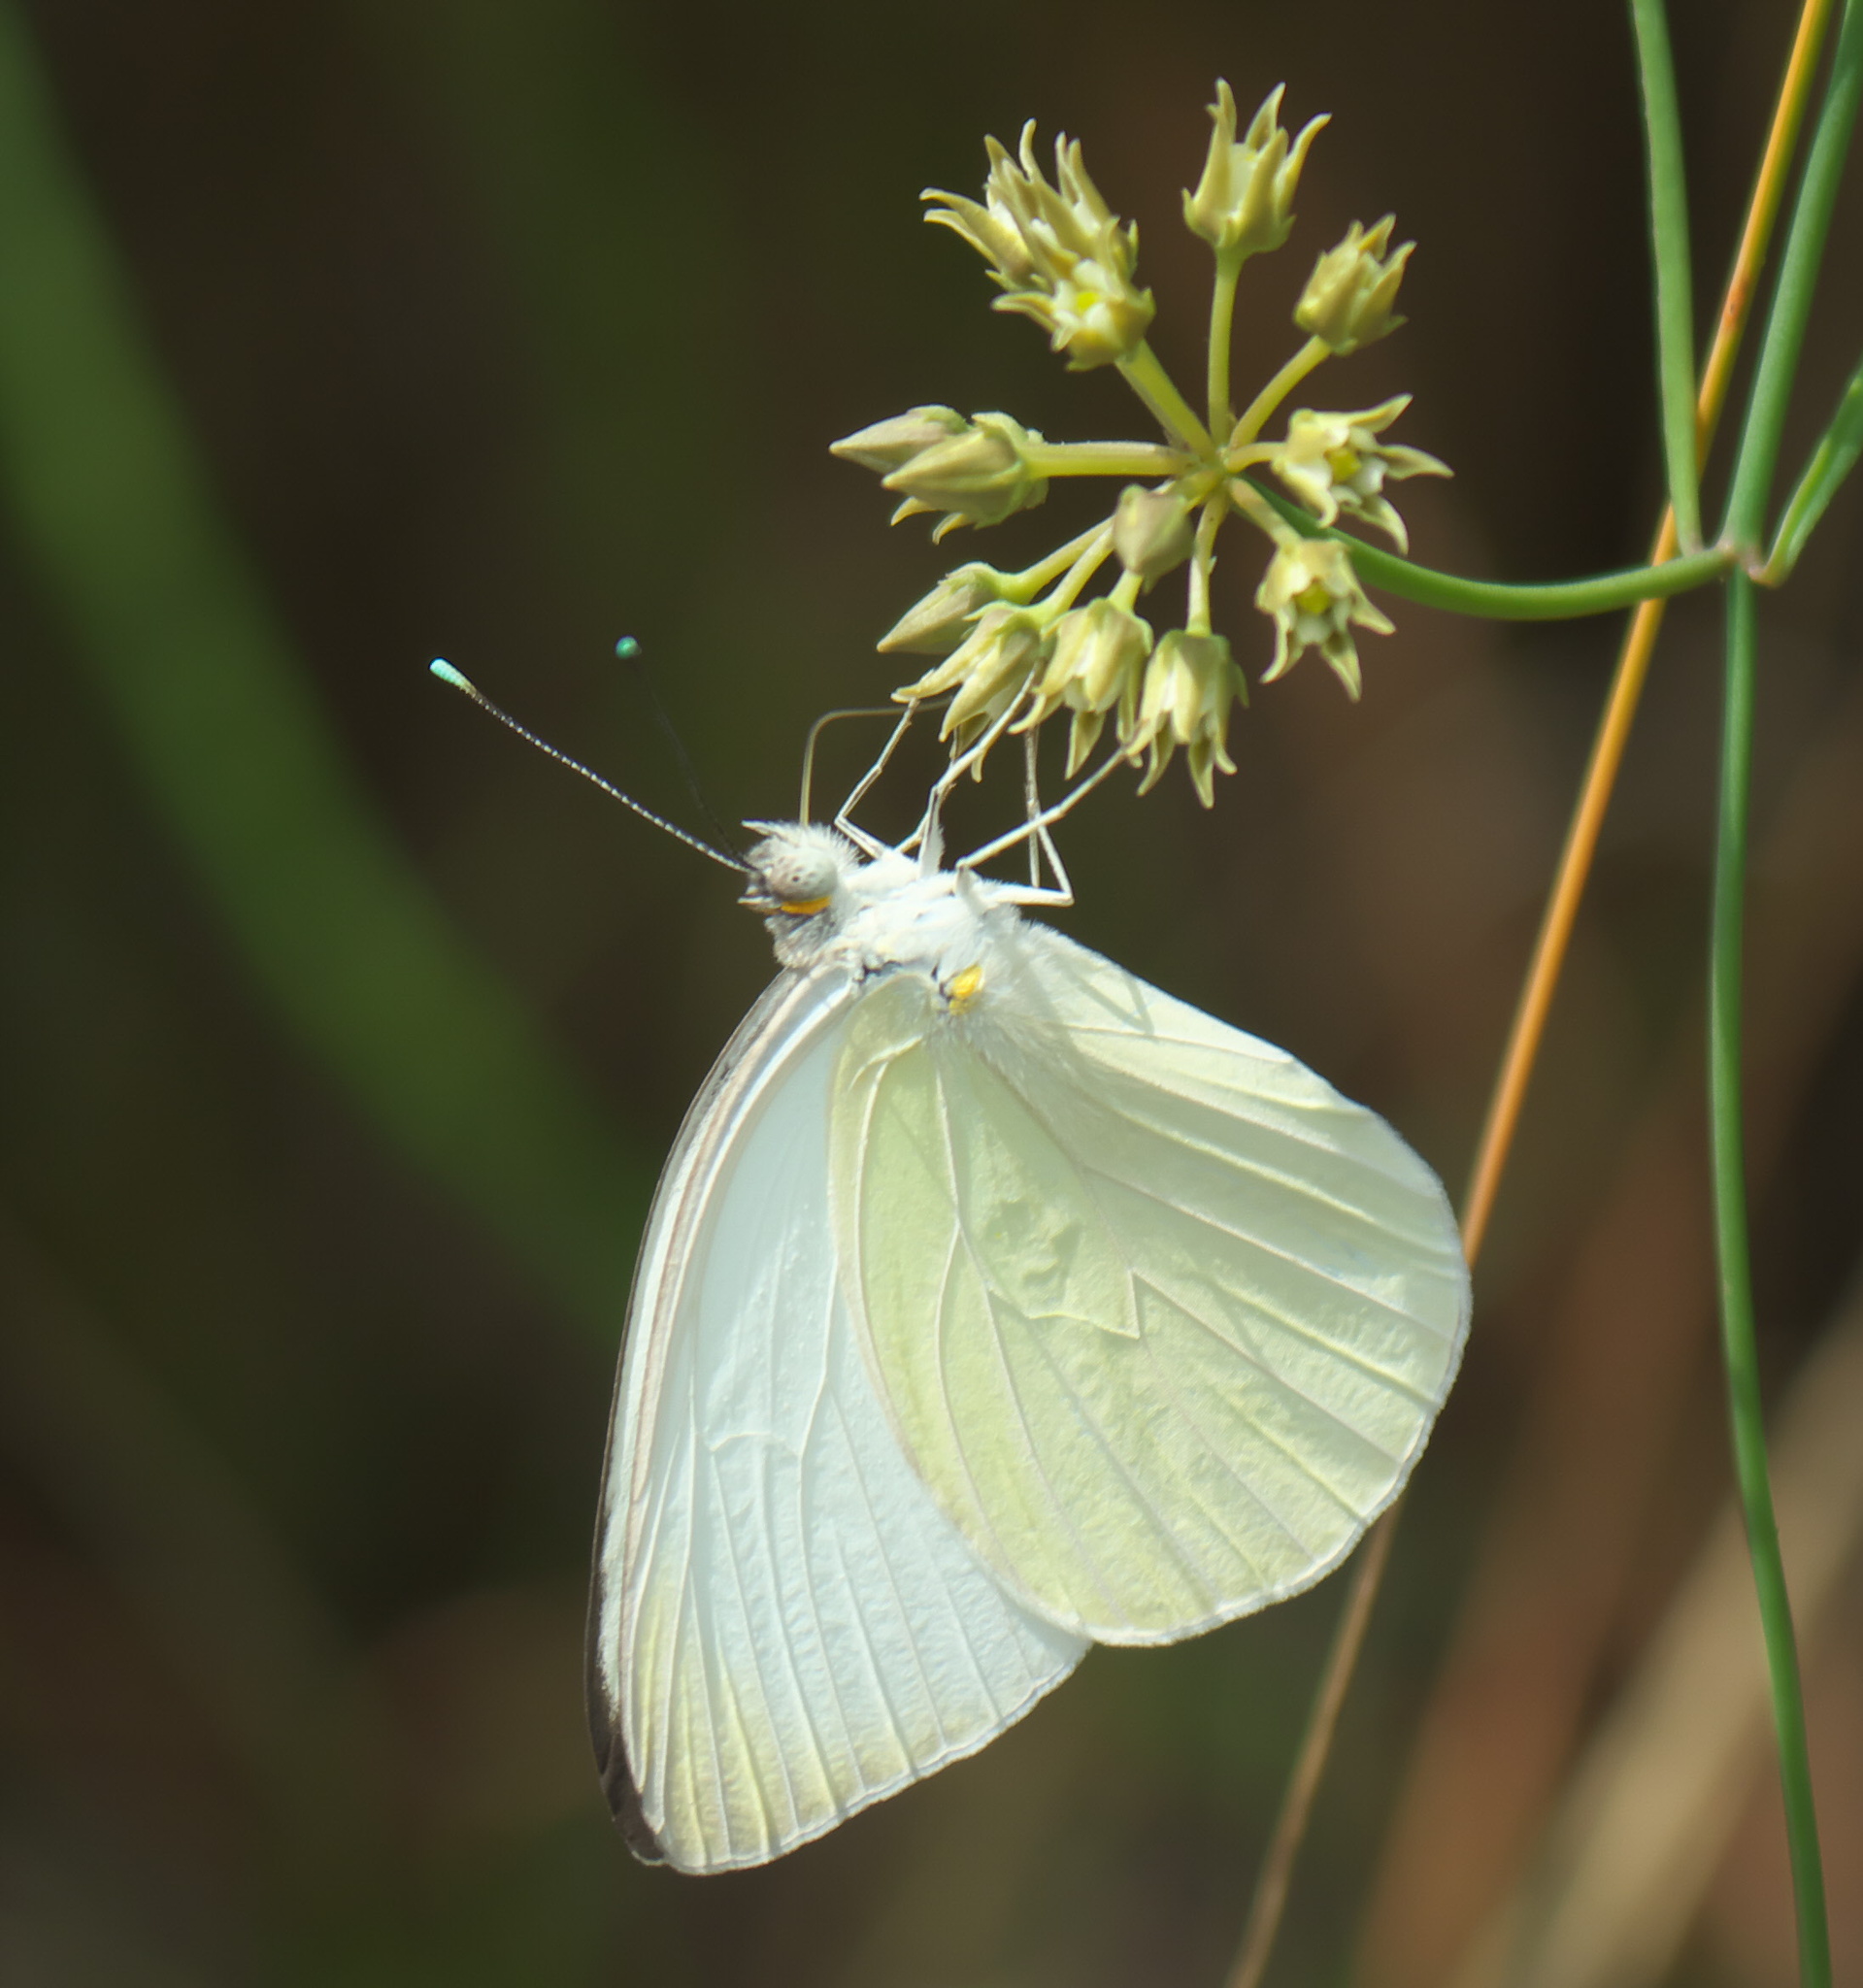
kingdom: Animalia
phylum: Arthropoda
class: Insecta
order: Lepidoptera
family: Pieridae
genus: Ascia
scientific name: Ascia monuste
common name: Great southern white
